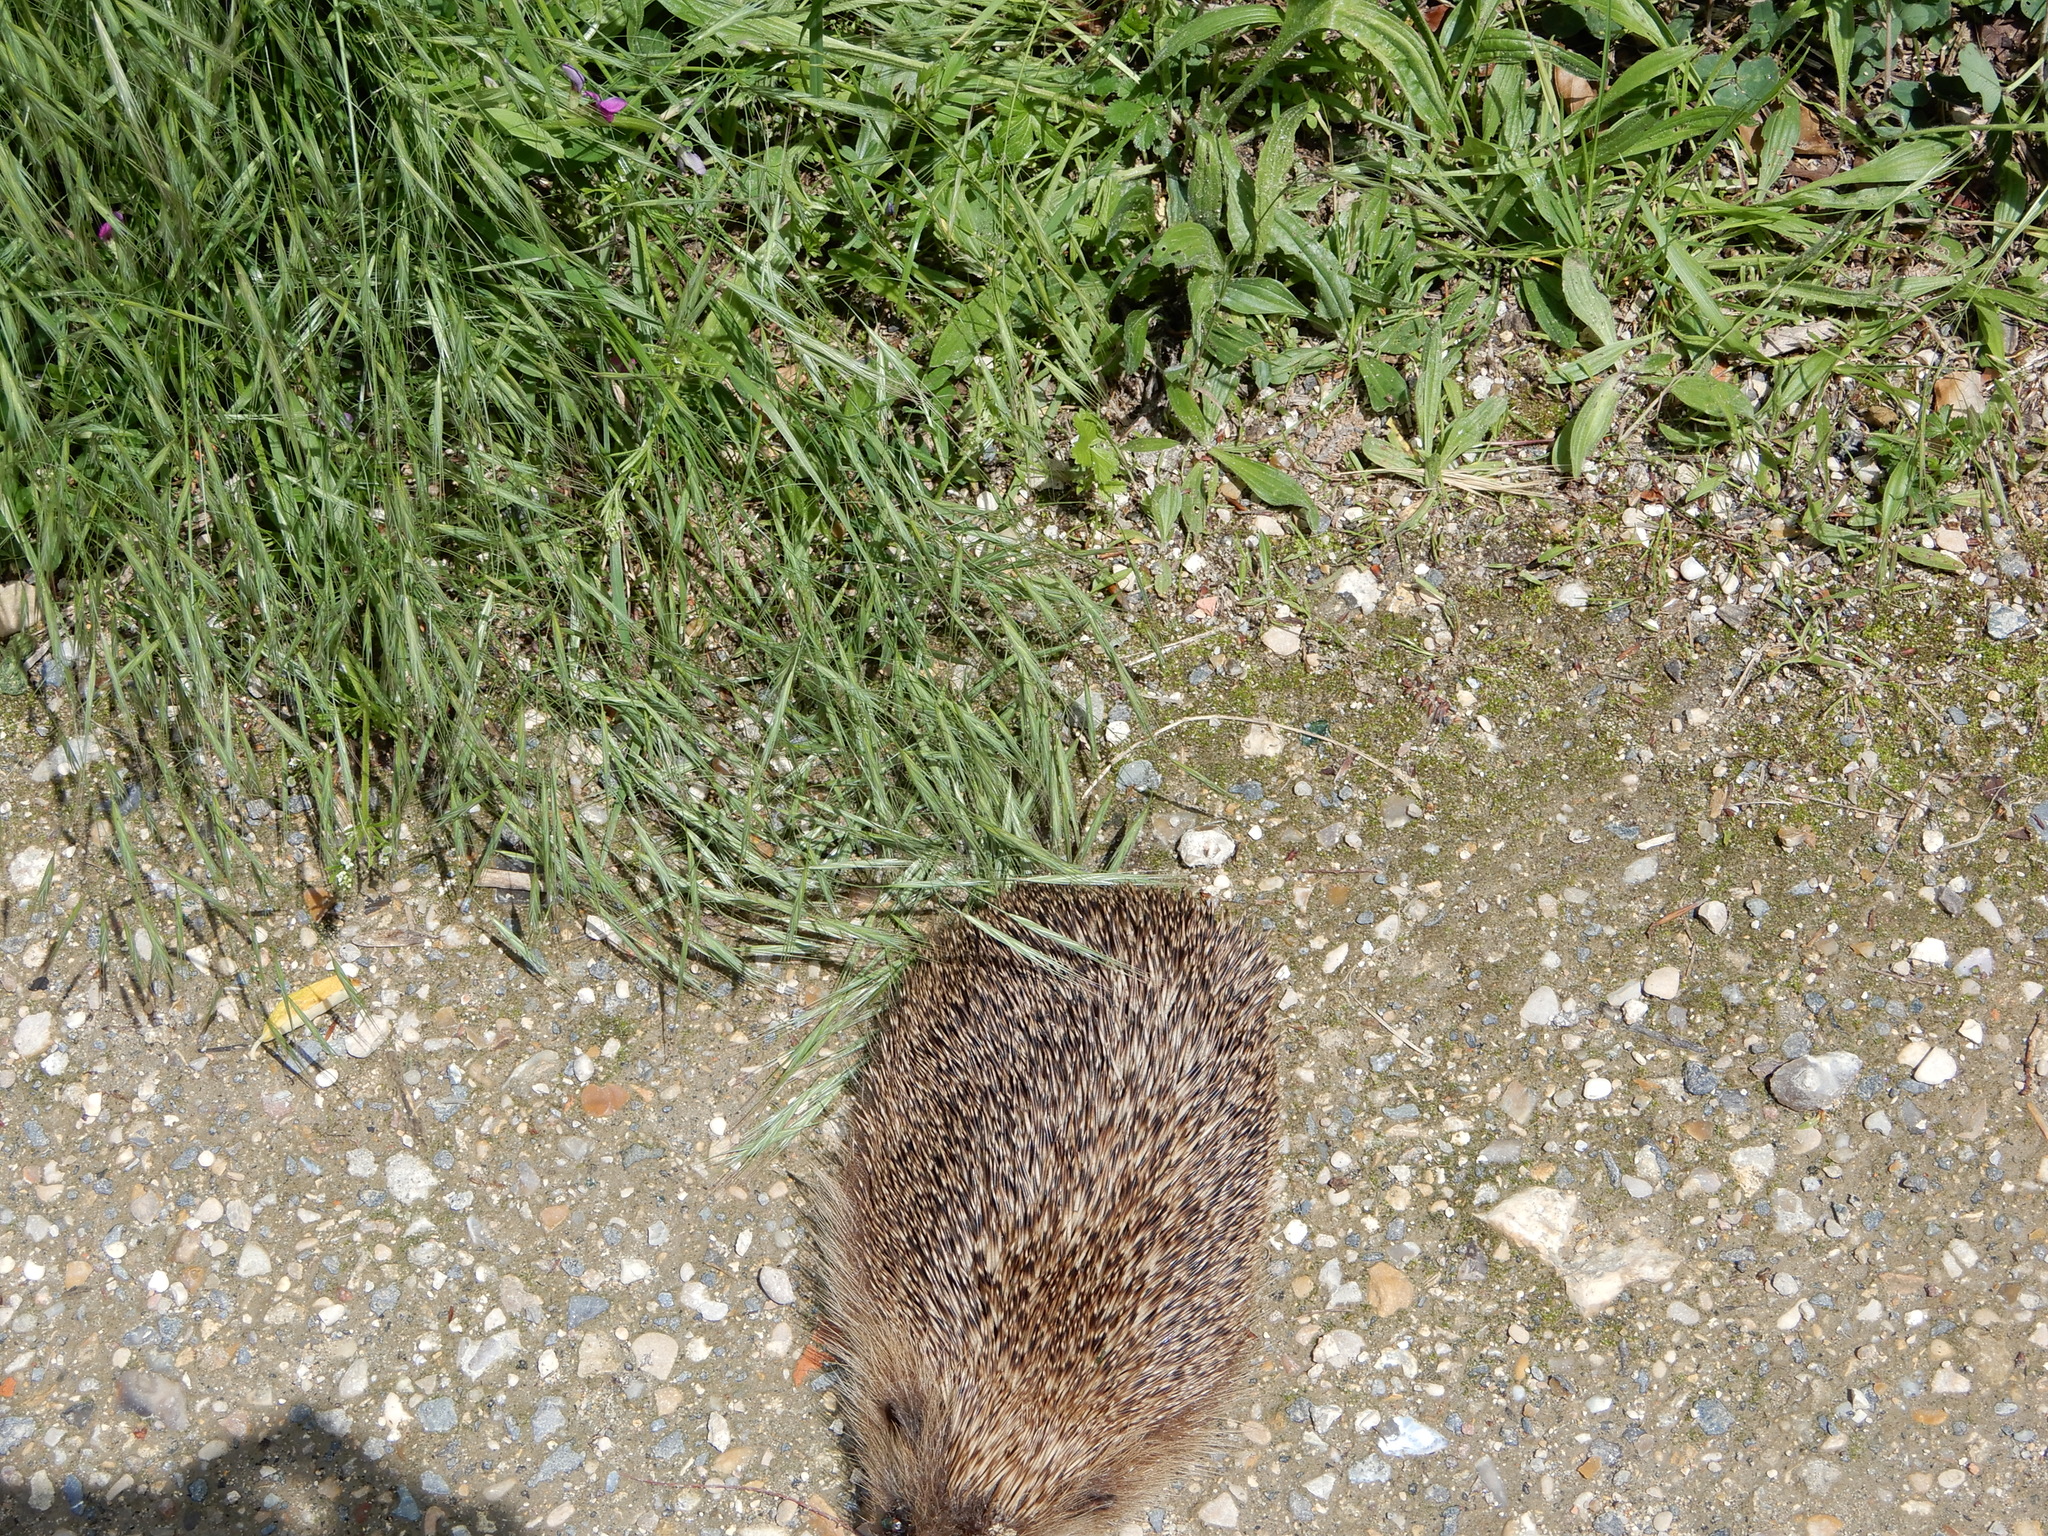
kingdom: Animalia
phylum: Chordata
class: Mammalia
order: Erinaceomorpha
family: Erinaceidae
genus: Erinaceus
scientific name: Erinaceus europaeus
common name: West european hedgehog
